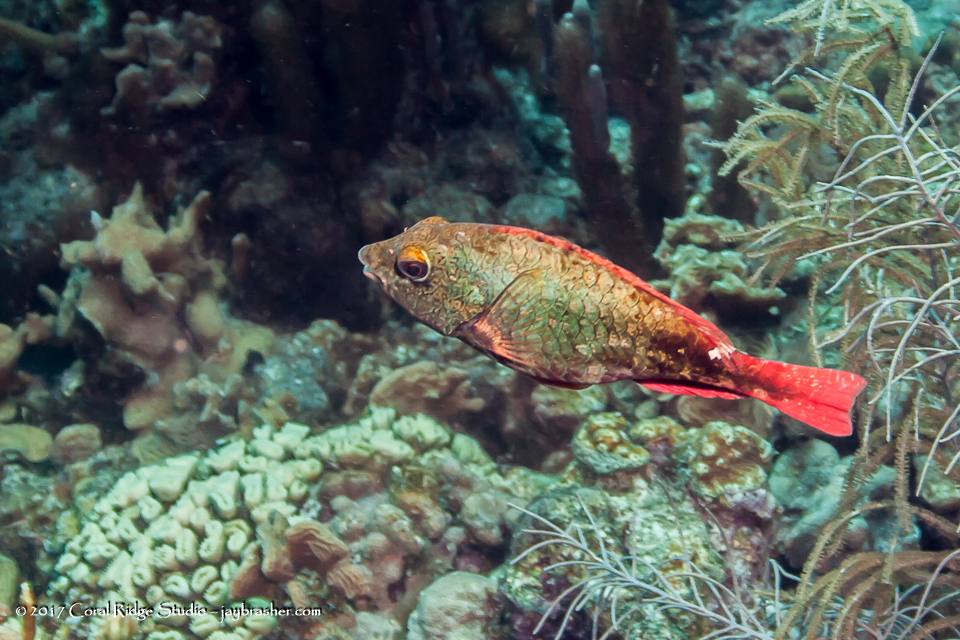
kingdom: Animalia
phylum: Chordata
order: Perciformes
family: Scaridae
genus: Sparisoma
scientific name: Sparisoma aurofrenatum
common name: Redband parrotfish
